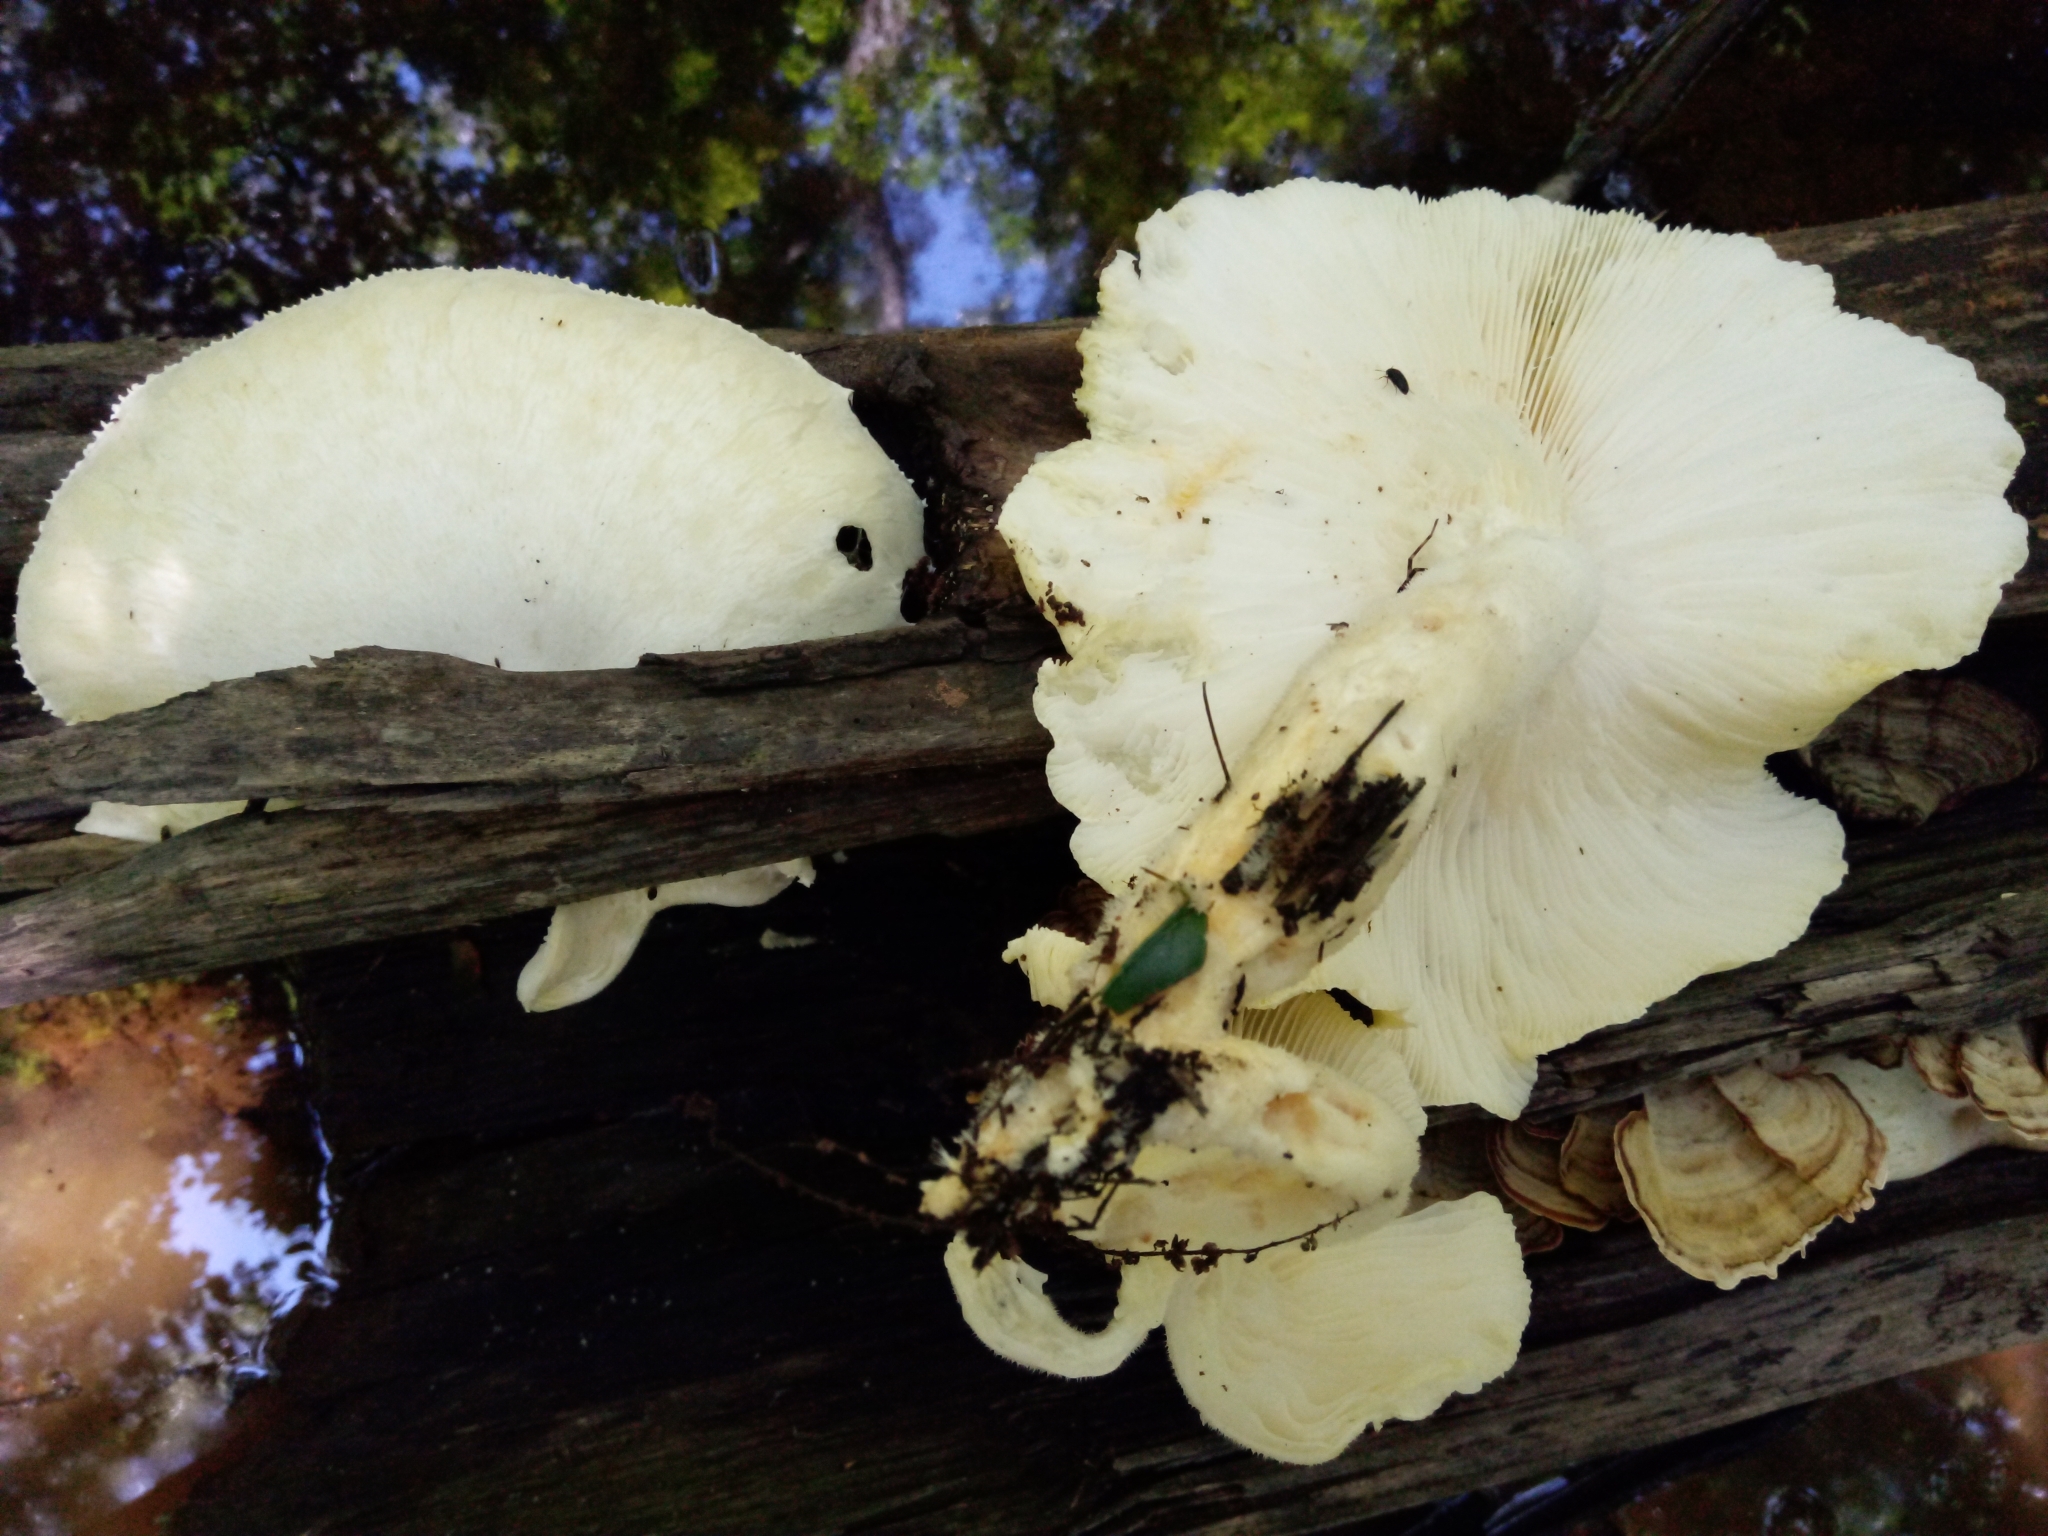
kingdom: Fungi
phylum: Basidiomycota
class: Agaricomycetes
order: Polyporales
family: Polyporaceae
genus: Lentinus
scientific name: Lentinus levis
